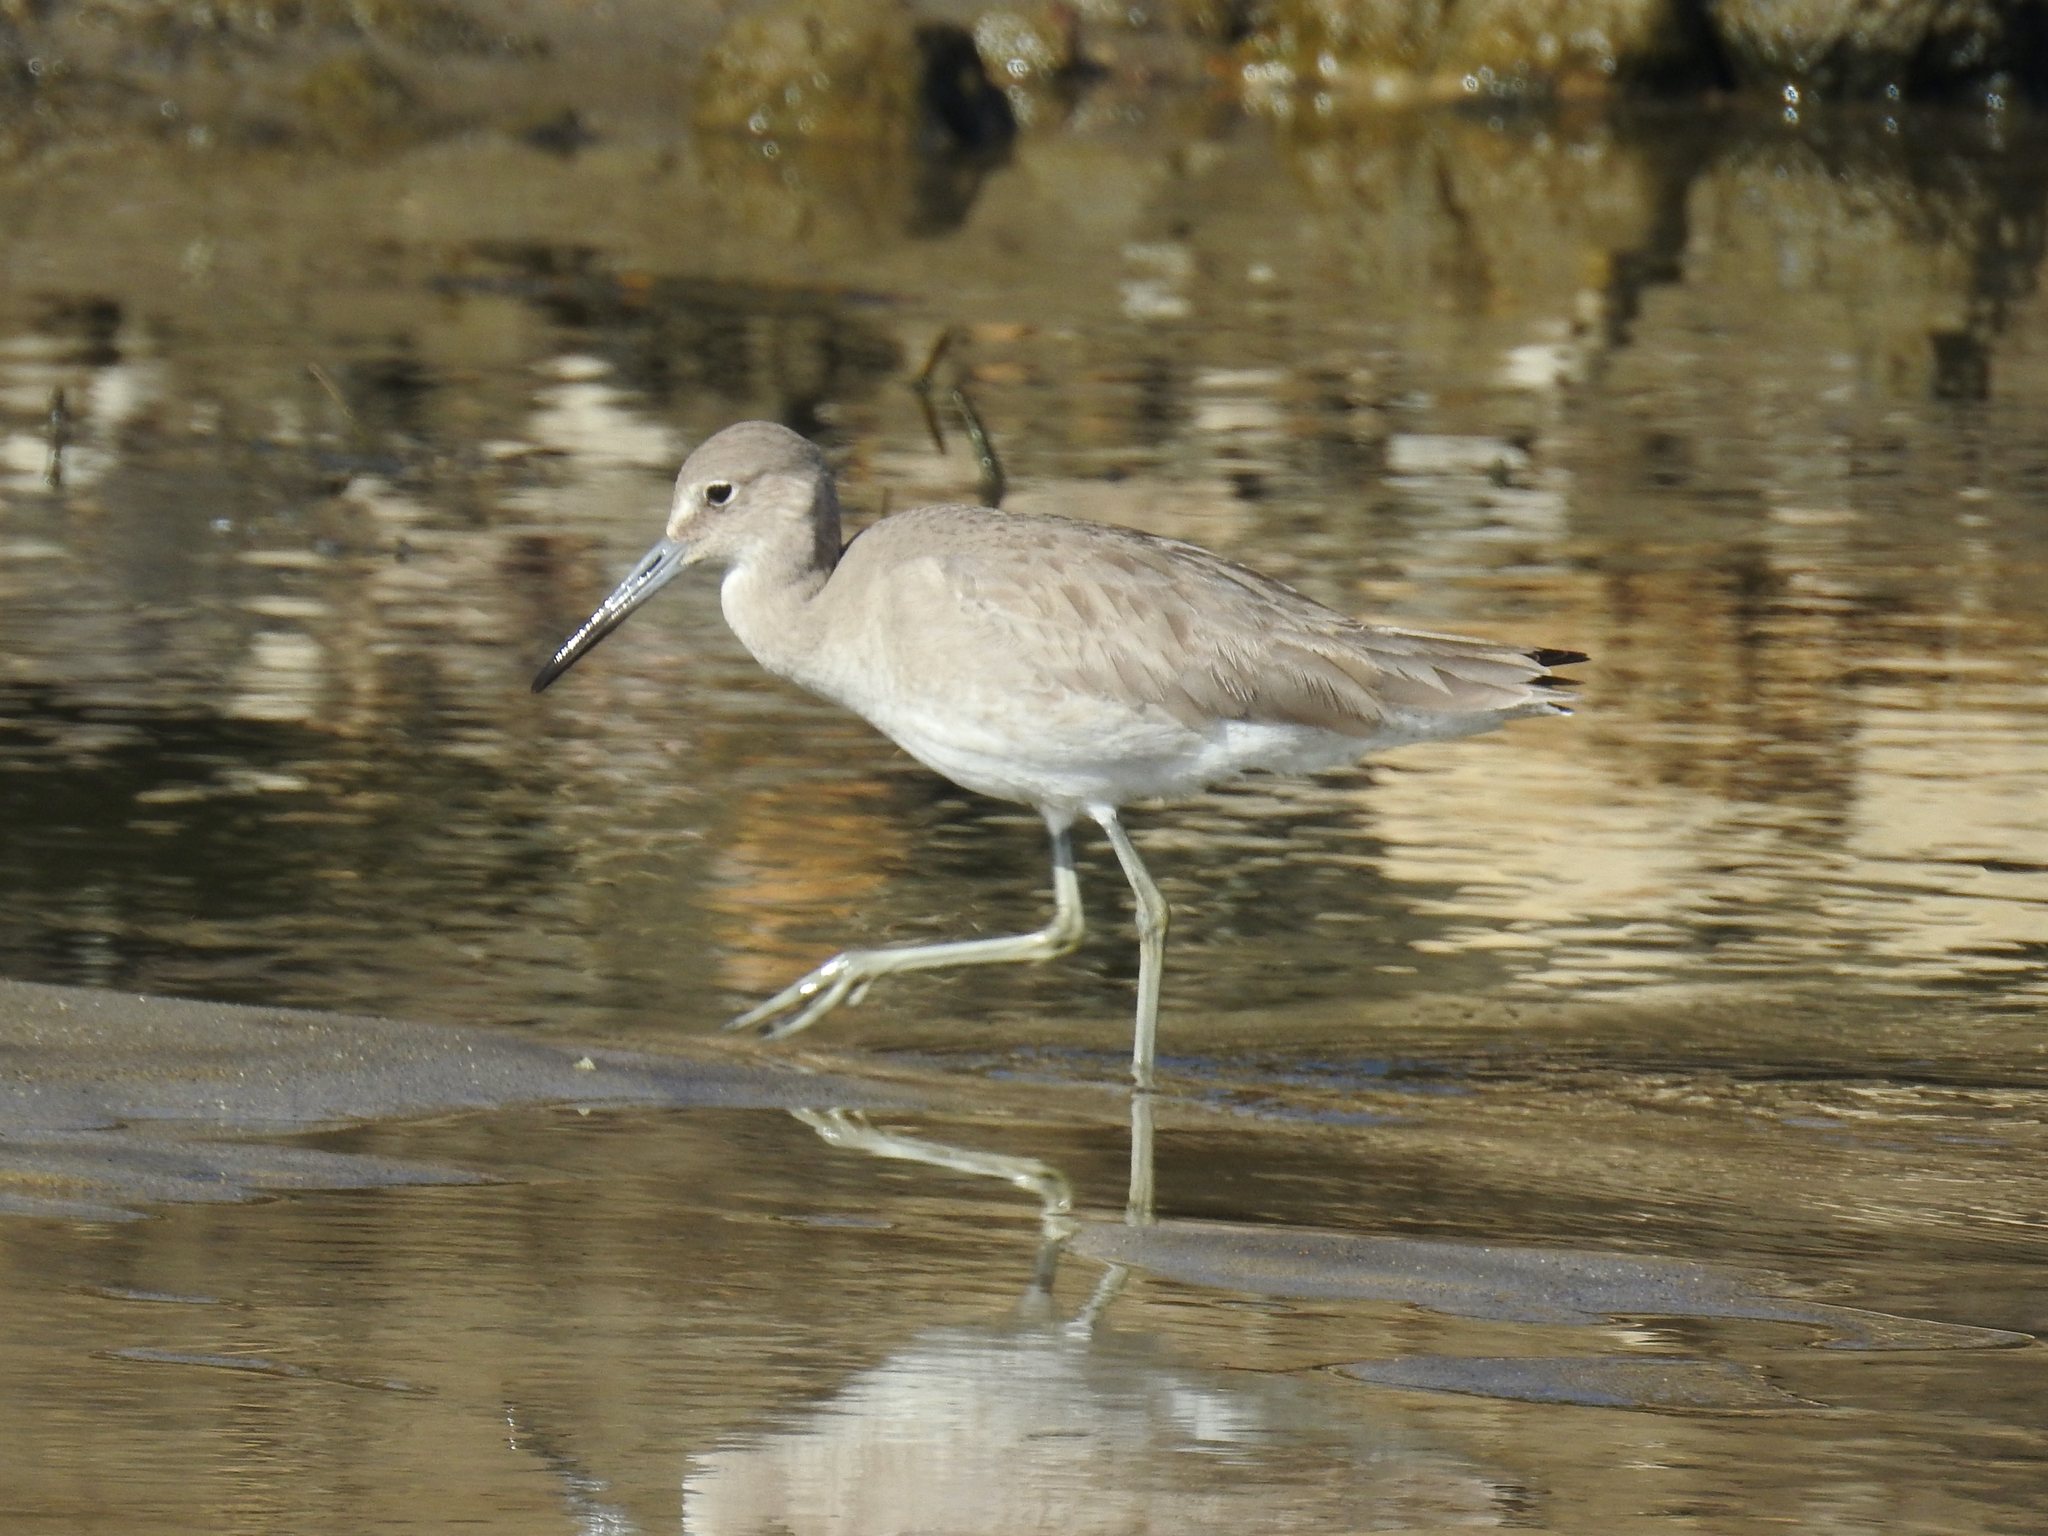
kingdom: Animalia
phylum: Chordata
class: Aves
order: Charadriiformes
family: Scolopacidae
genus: Tringa
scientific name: Tringa semipalmata
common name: Willet
